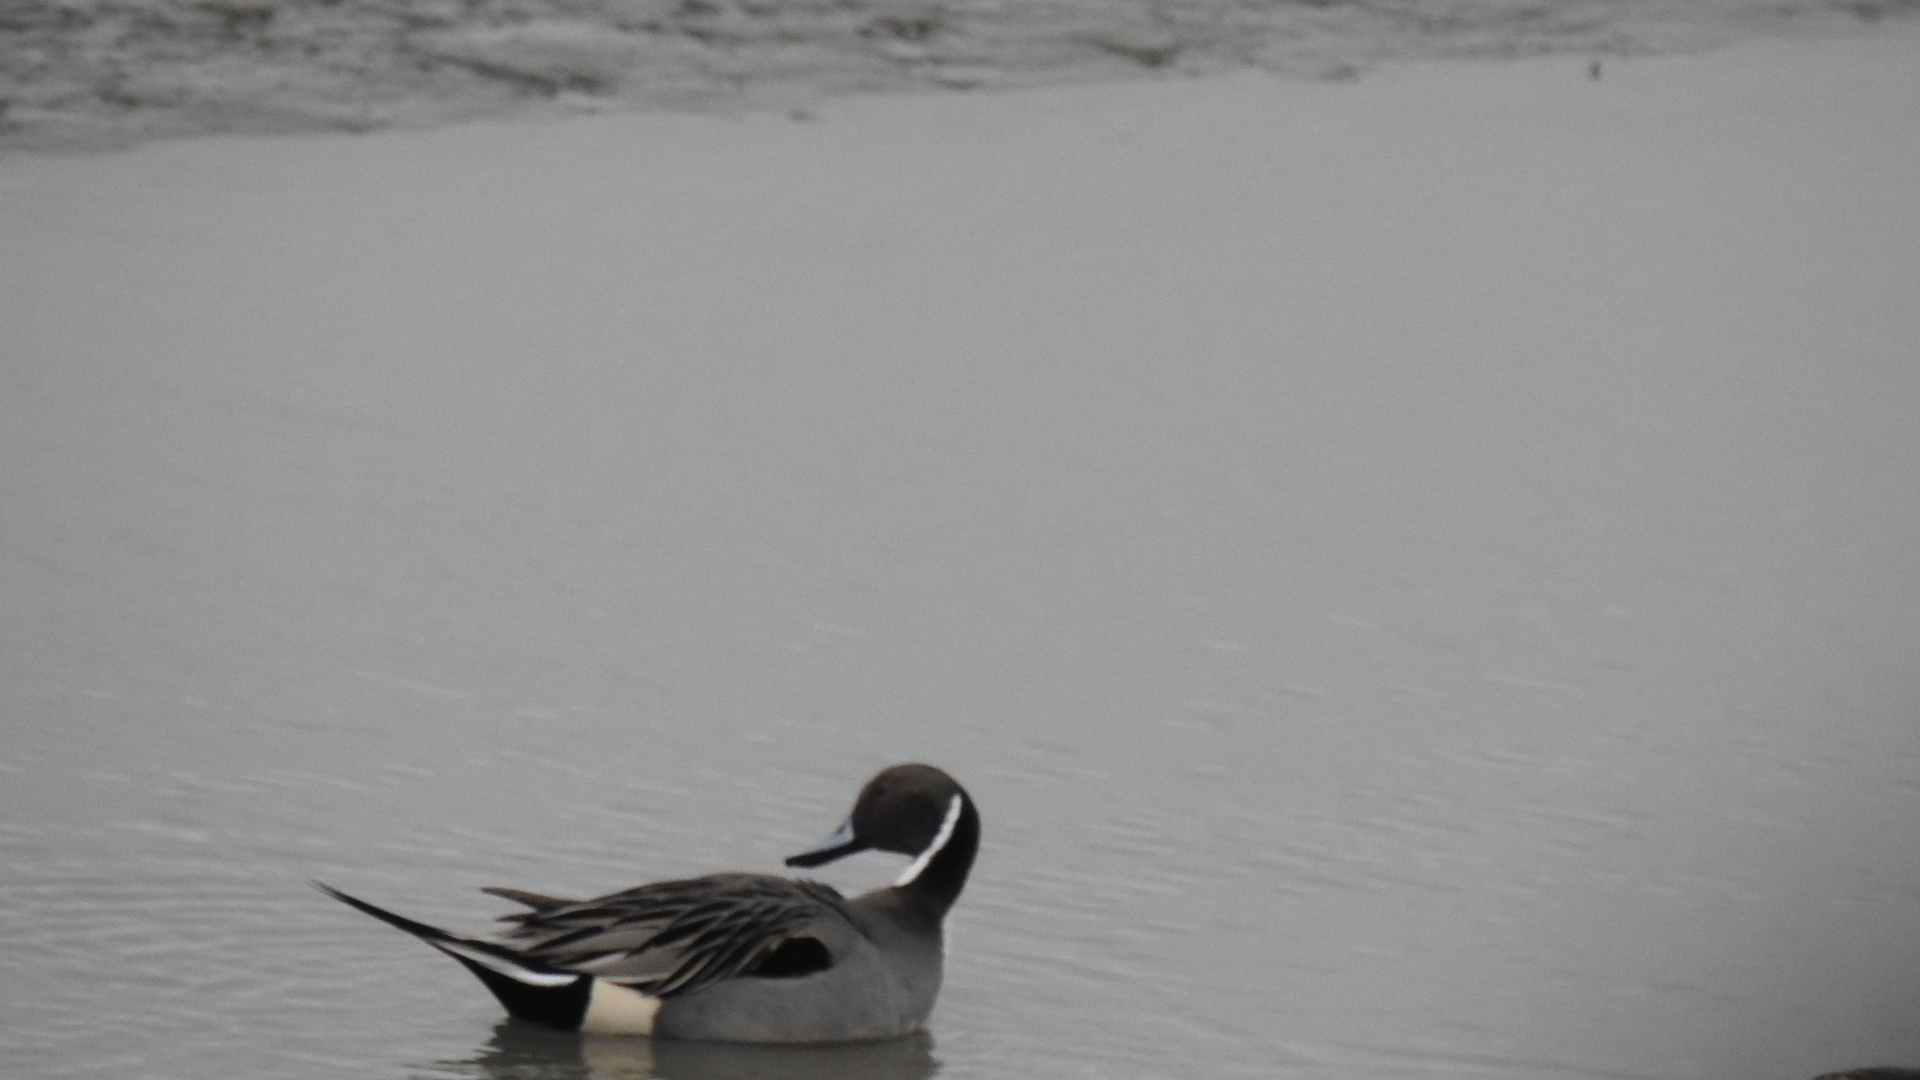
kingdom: Animalia
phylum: Chordata
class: Aves
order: Anseriformes
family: Anatidae
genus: Anas
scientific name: Anas acuta
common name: Northern pintail
